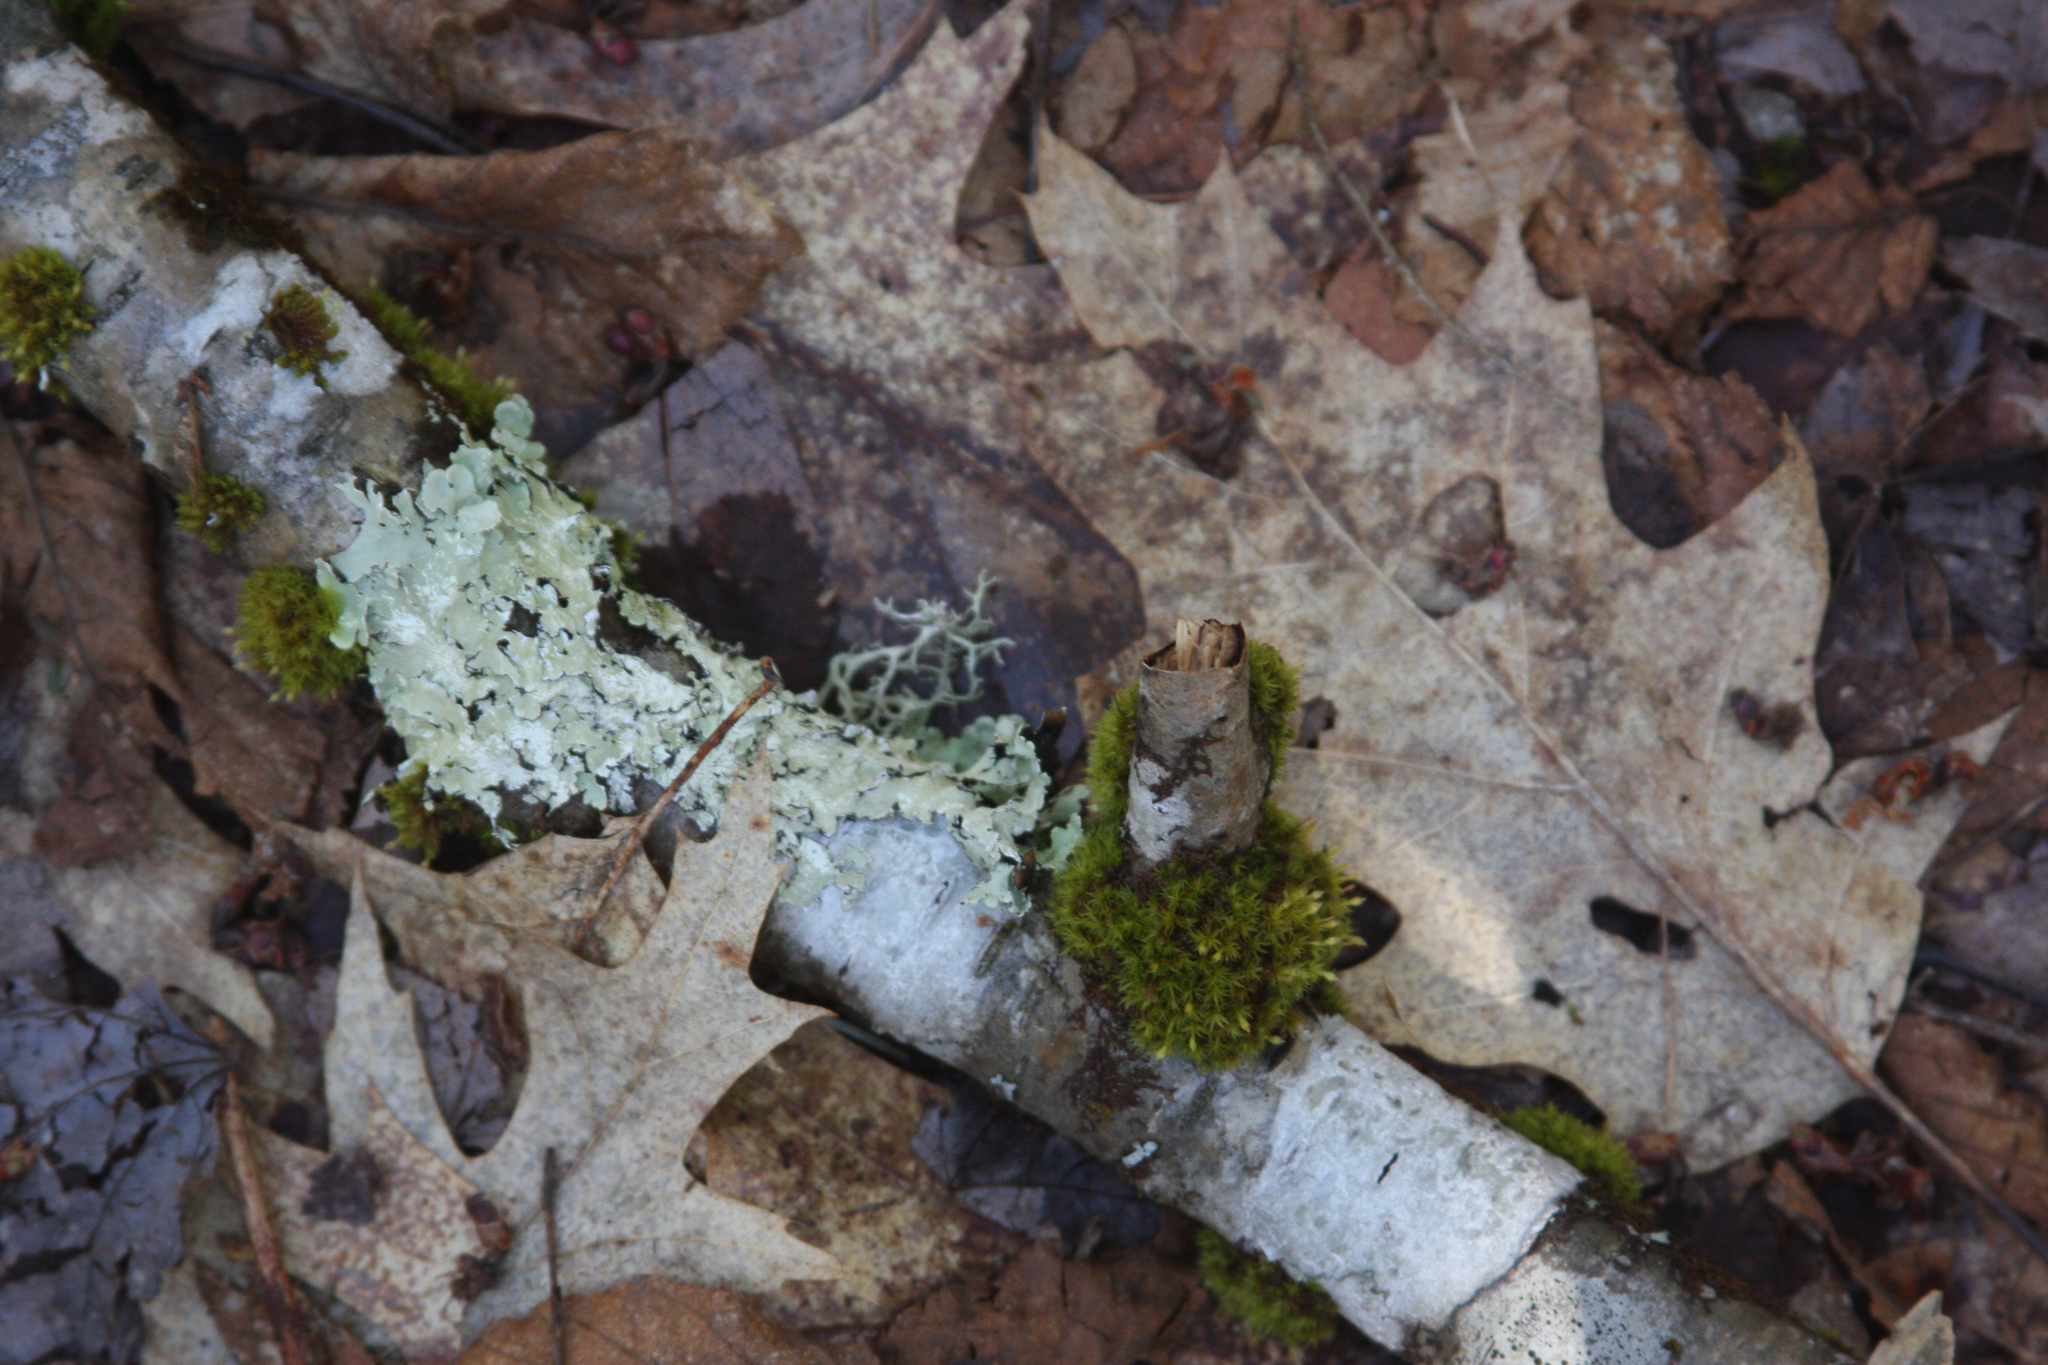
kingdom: Plantae
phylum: Bryophyta
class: Bryopsida
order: Orthotrichales
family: Orthotrichaceae
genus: Ulota
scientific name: Ulota crispa
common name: Crisped pincushion moss
